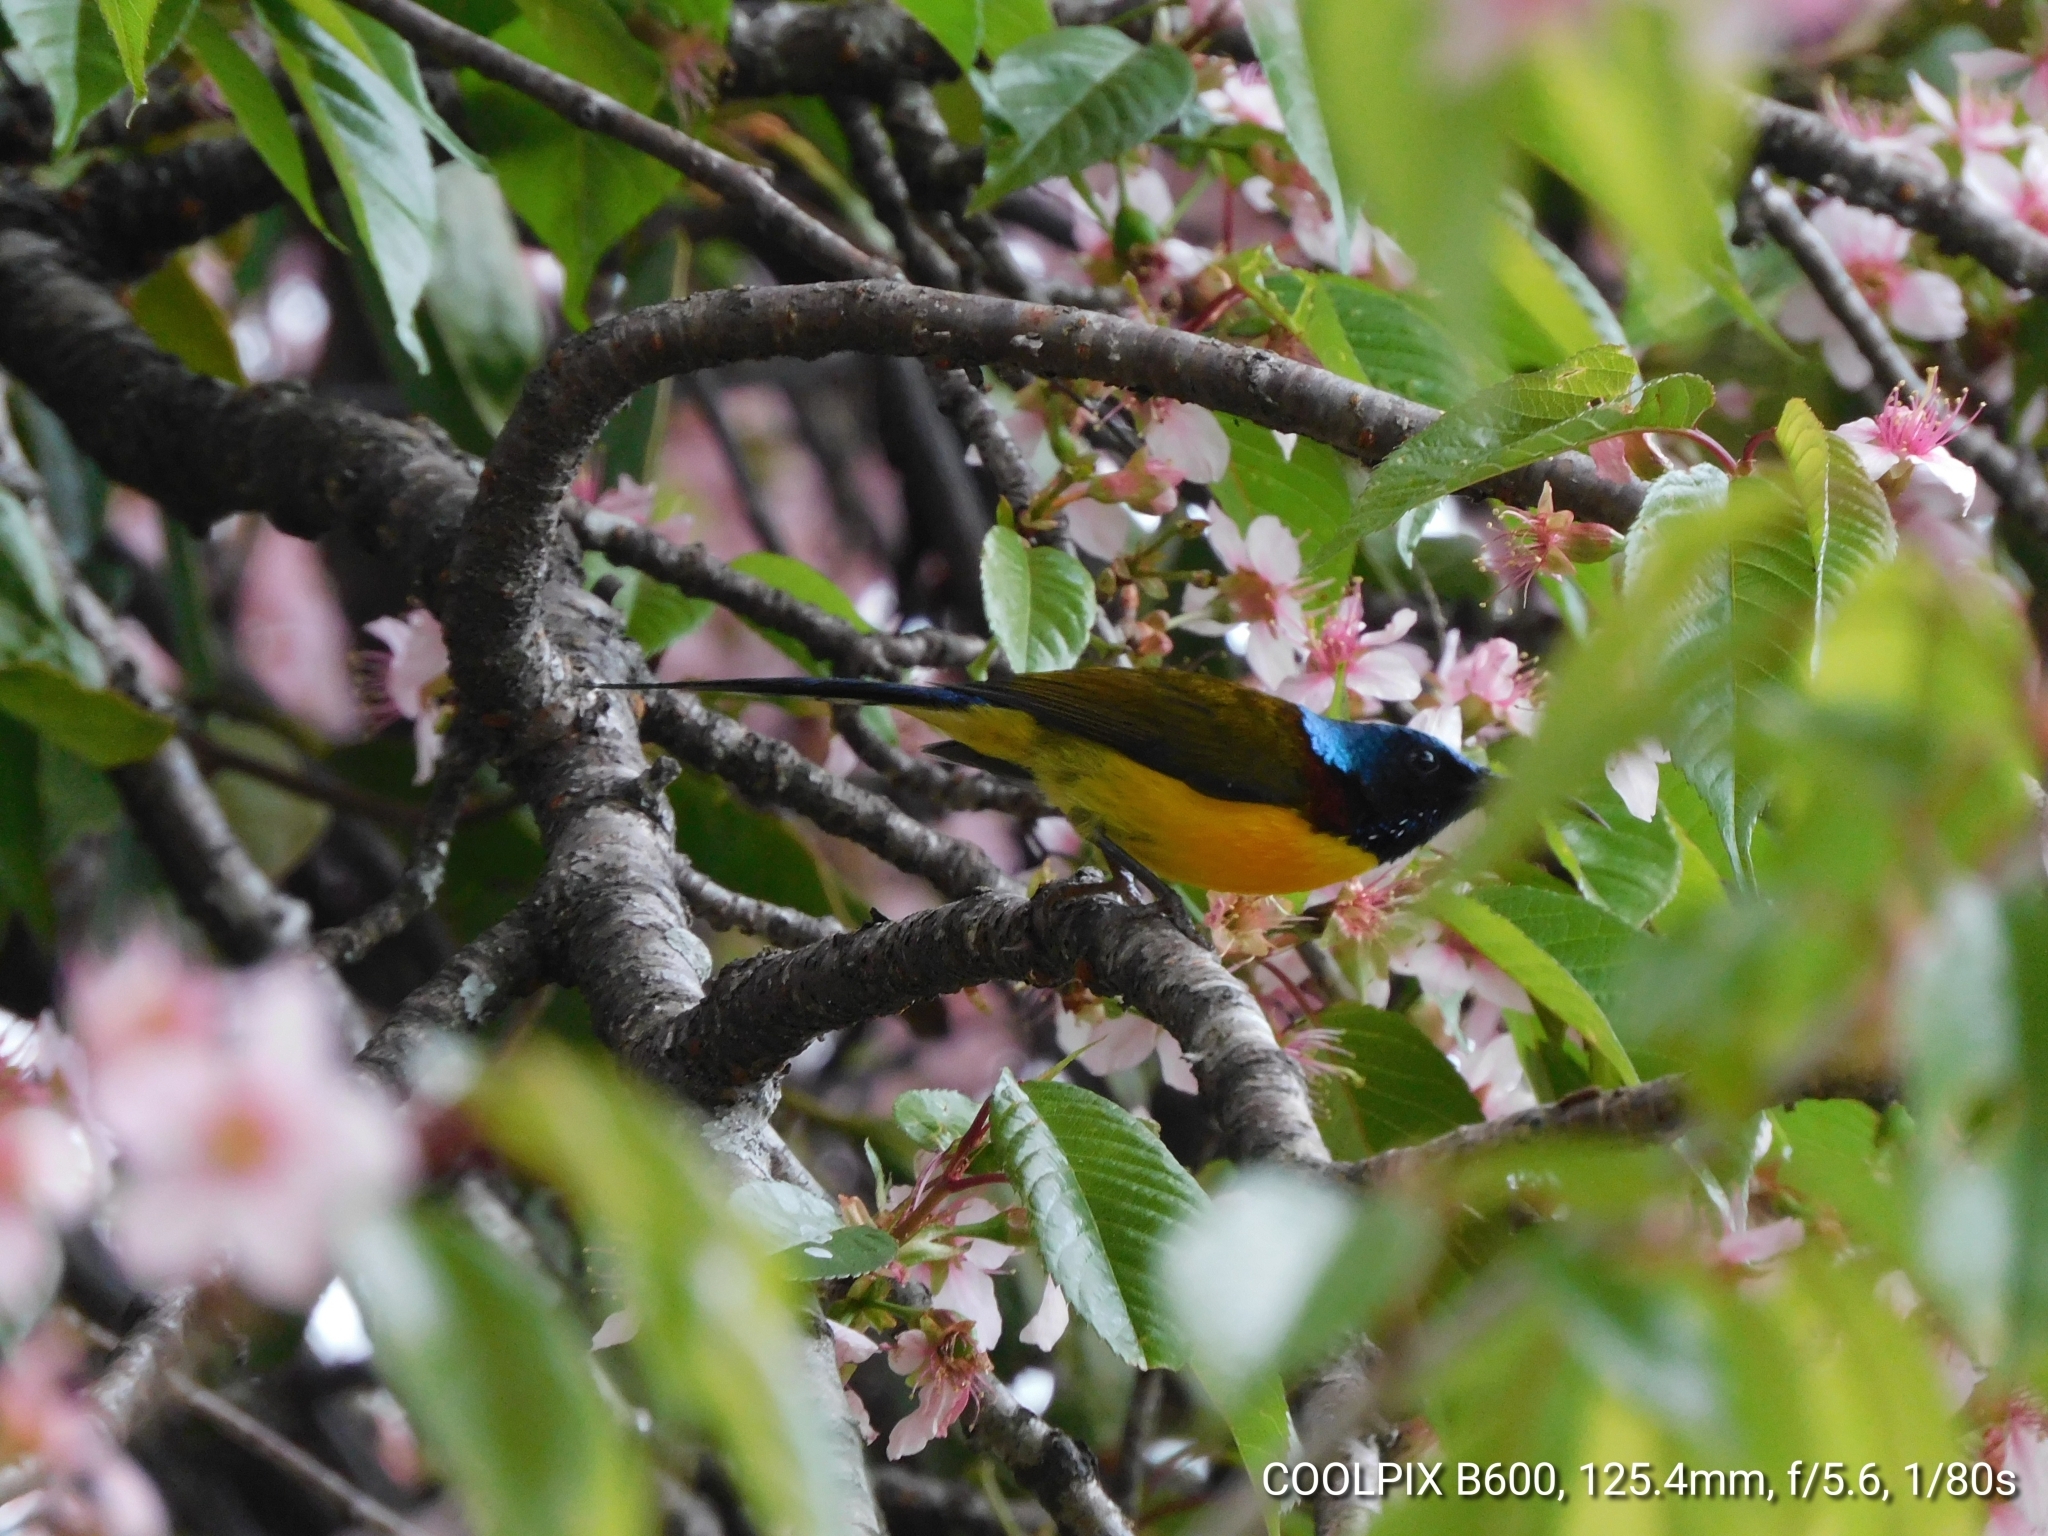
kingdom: Animalia
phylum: Chordata
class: Aves
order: Passeriformes
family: Nectariniidae
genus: Aethopyga
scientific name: Aethopyga nipalensis
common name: Green-tailed sunbird
